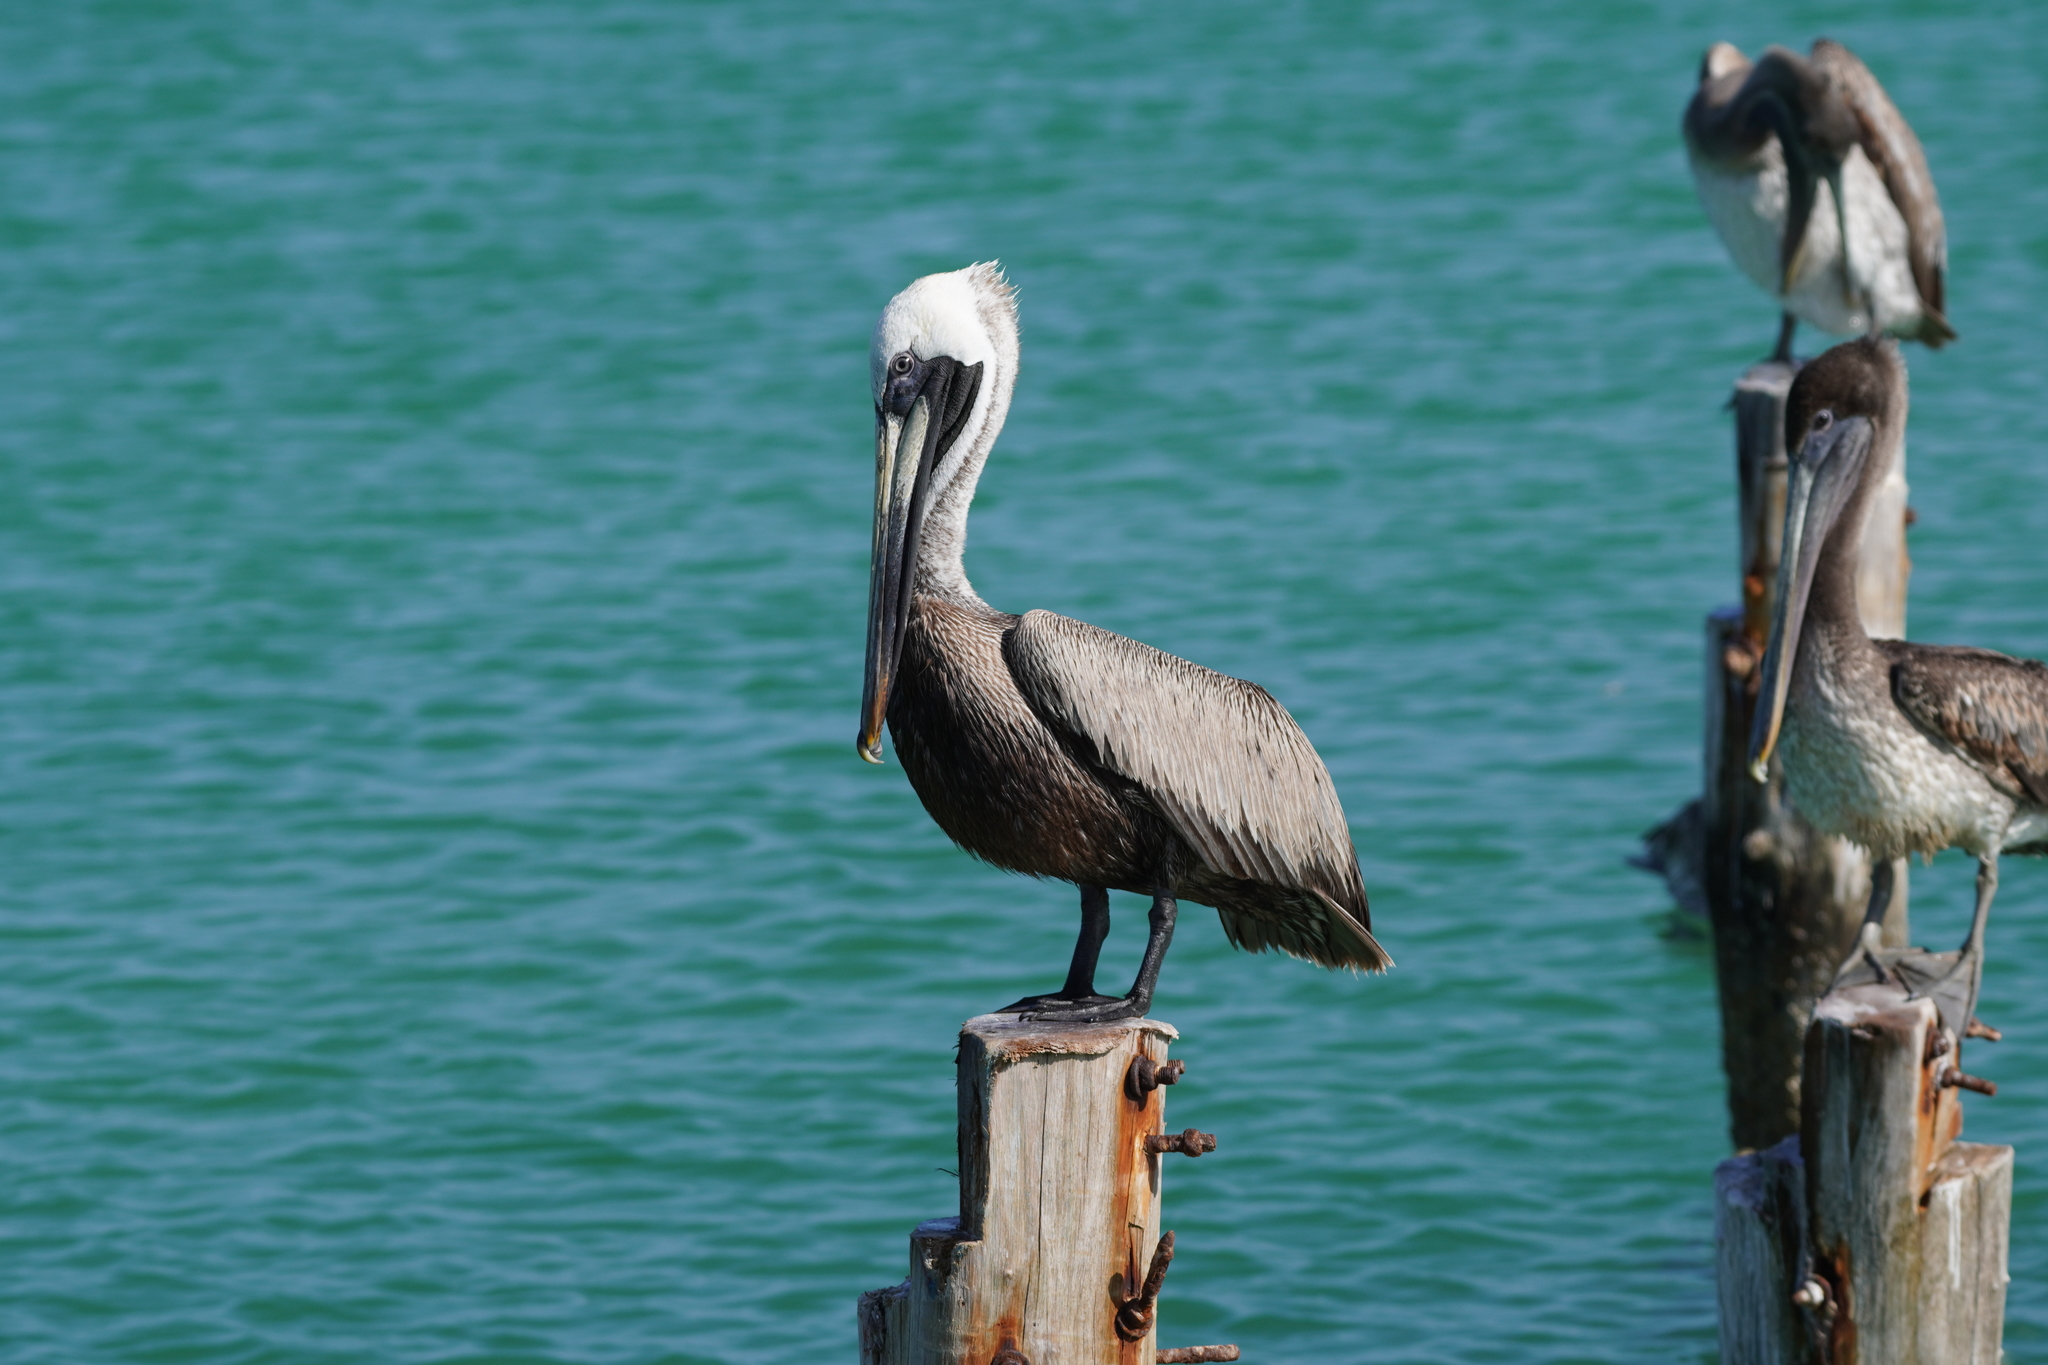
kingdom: Animalia
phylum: Chordata
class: Aves
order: Pelecaniformes
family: Pelecanidae
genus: Pelecanus
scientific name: Pelecanus occidentalis
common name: Brown pelican
